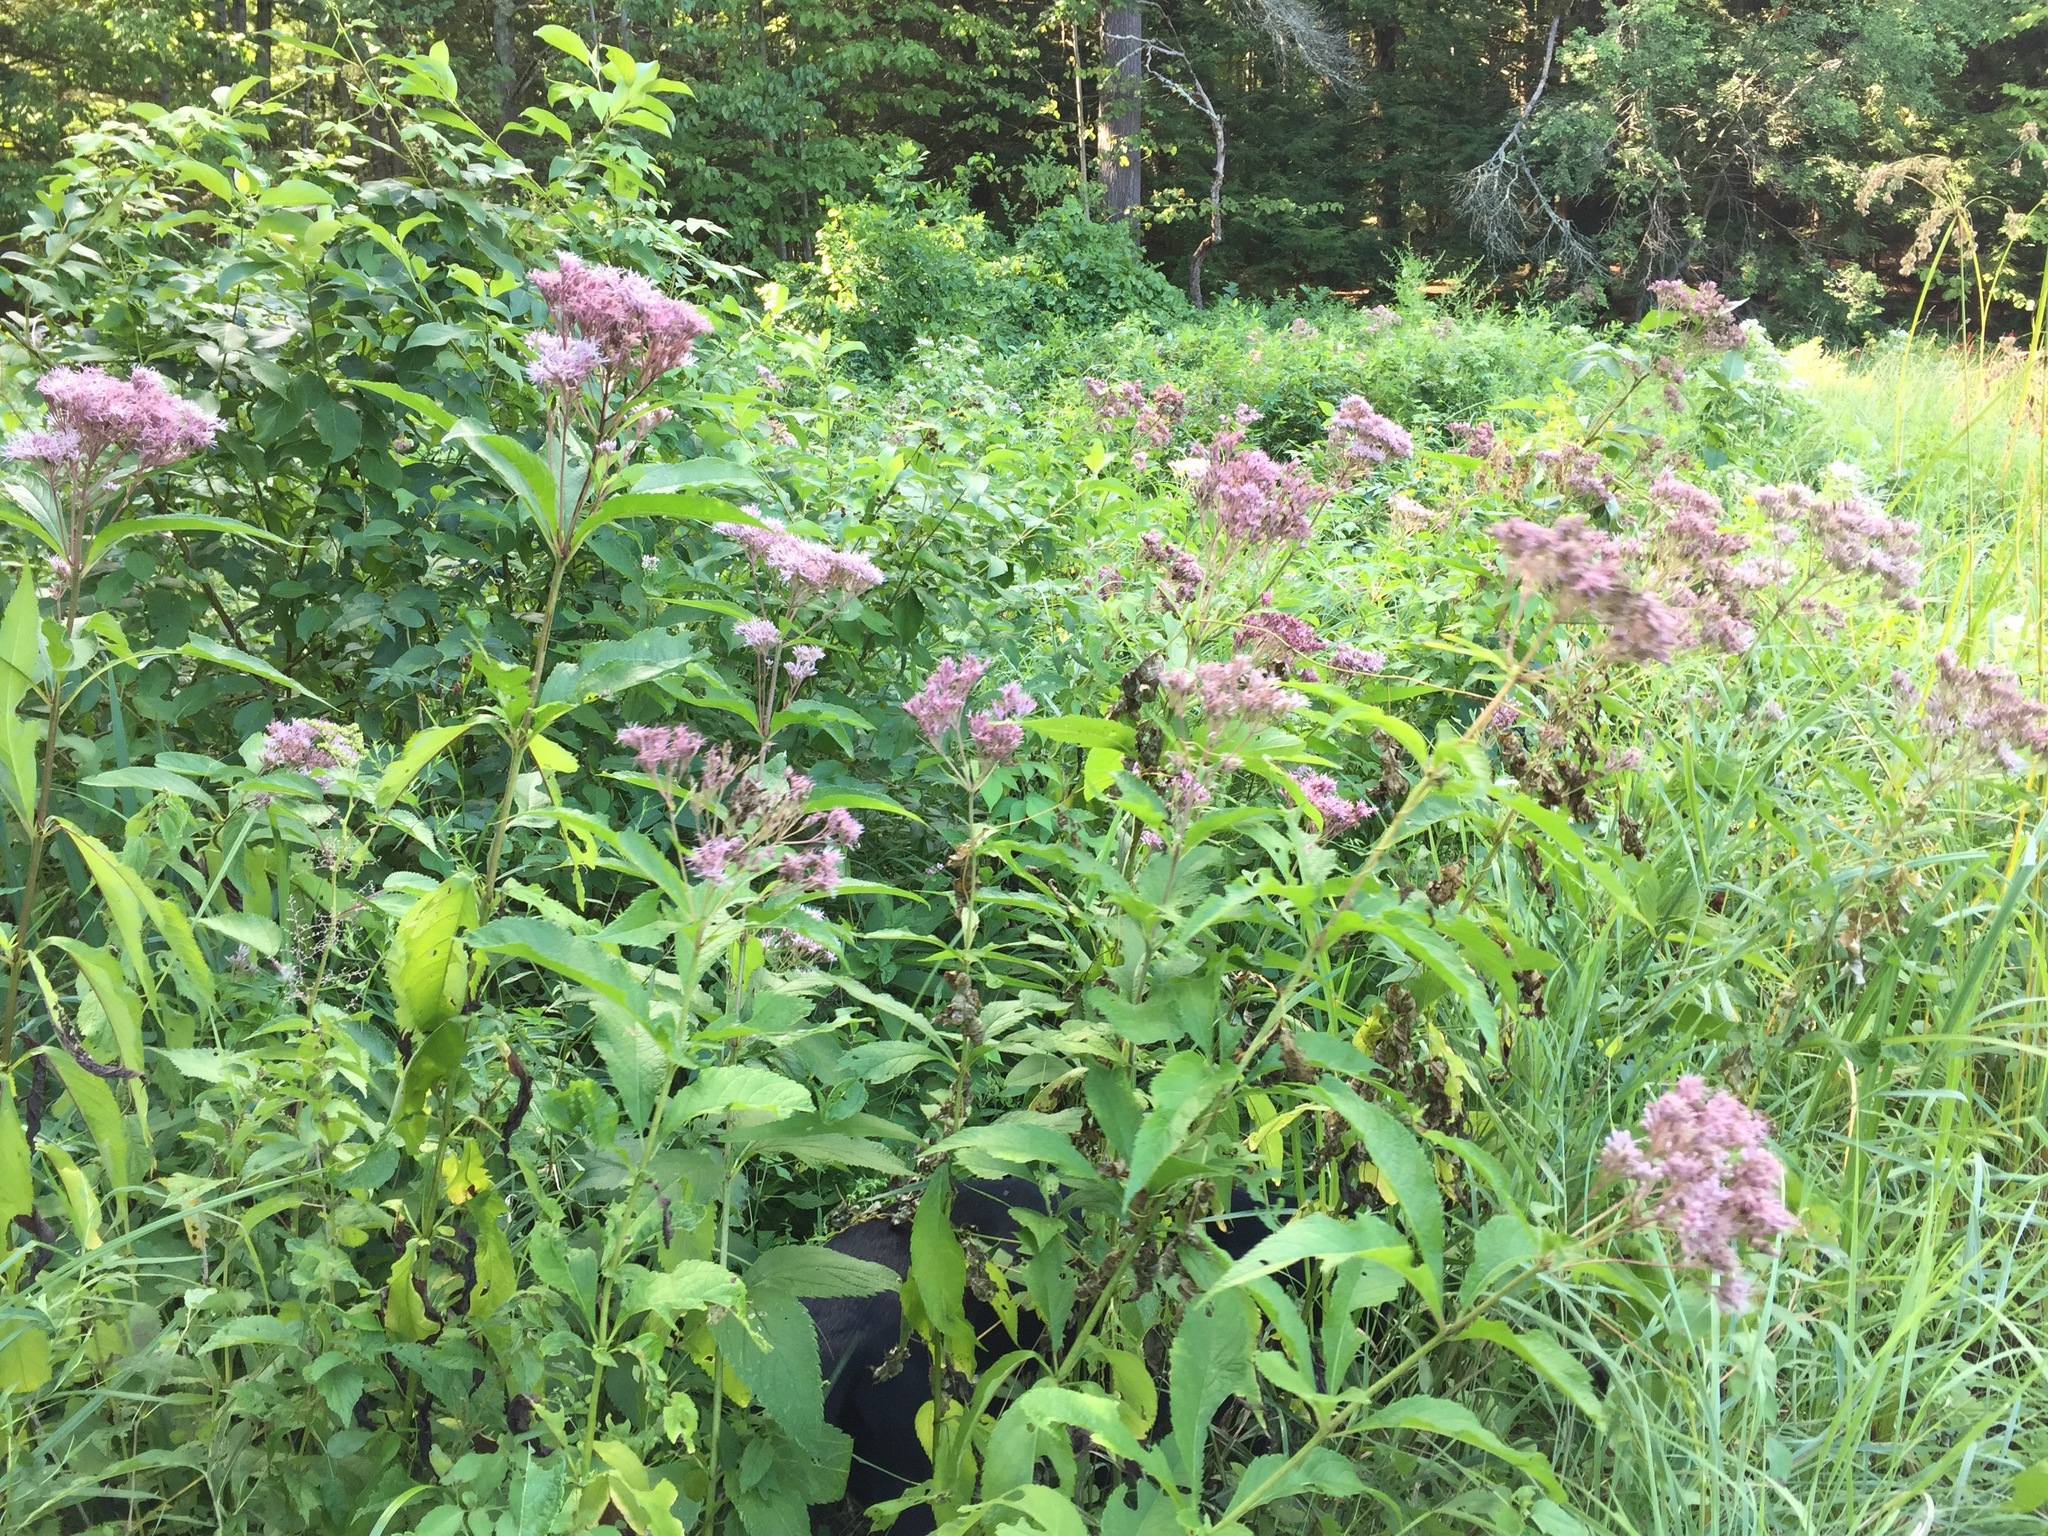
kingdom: Plantae
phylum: Tracheophyta
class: Magnoliopsida
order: Asterales
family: Asteraceae
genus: Eutrochium
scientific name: Eutrochium maculatum
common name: Spotted joe pye weed
